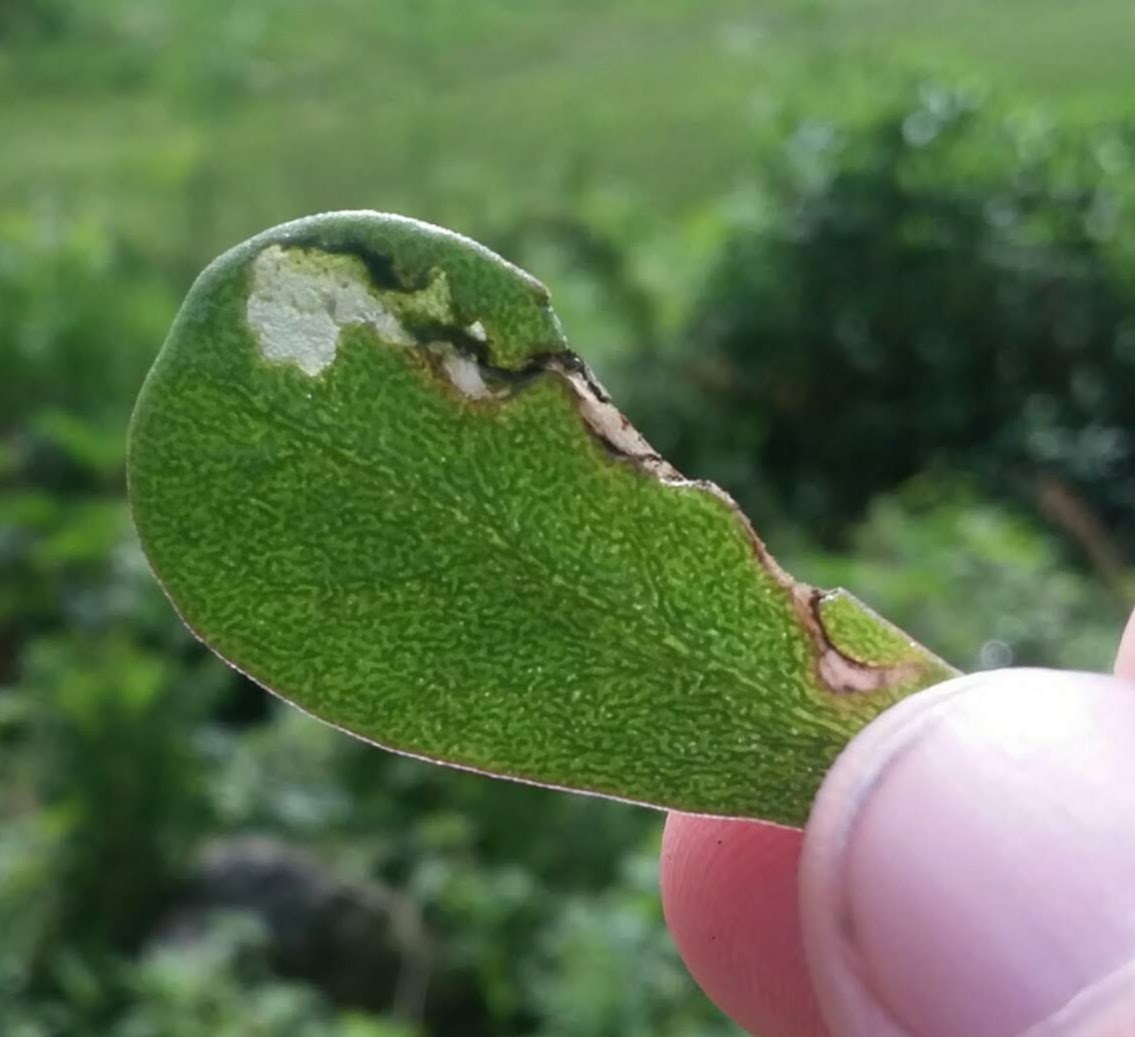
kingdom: Animalia
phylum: Arthropoda
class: Insecta
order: Hymenoptera
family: Argidae
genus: Schizocerella
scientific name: Schizocerella pilicornis
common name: Purslane sawfly
